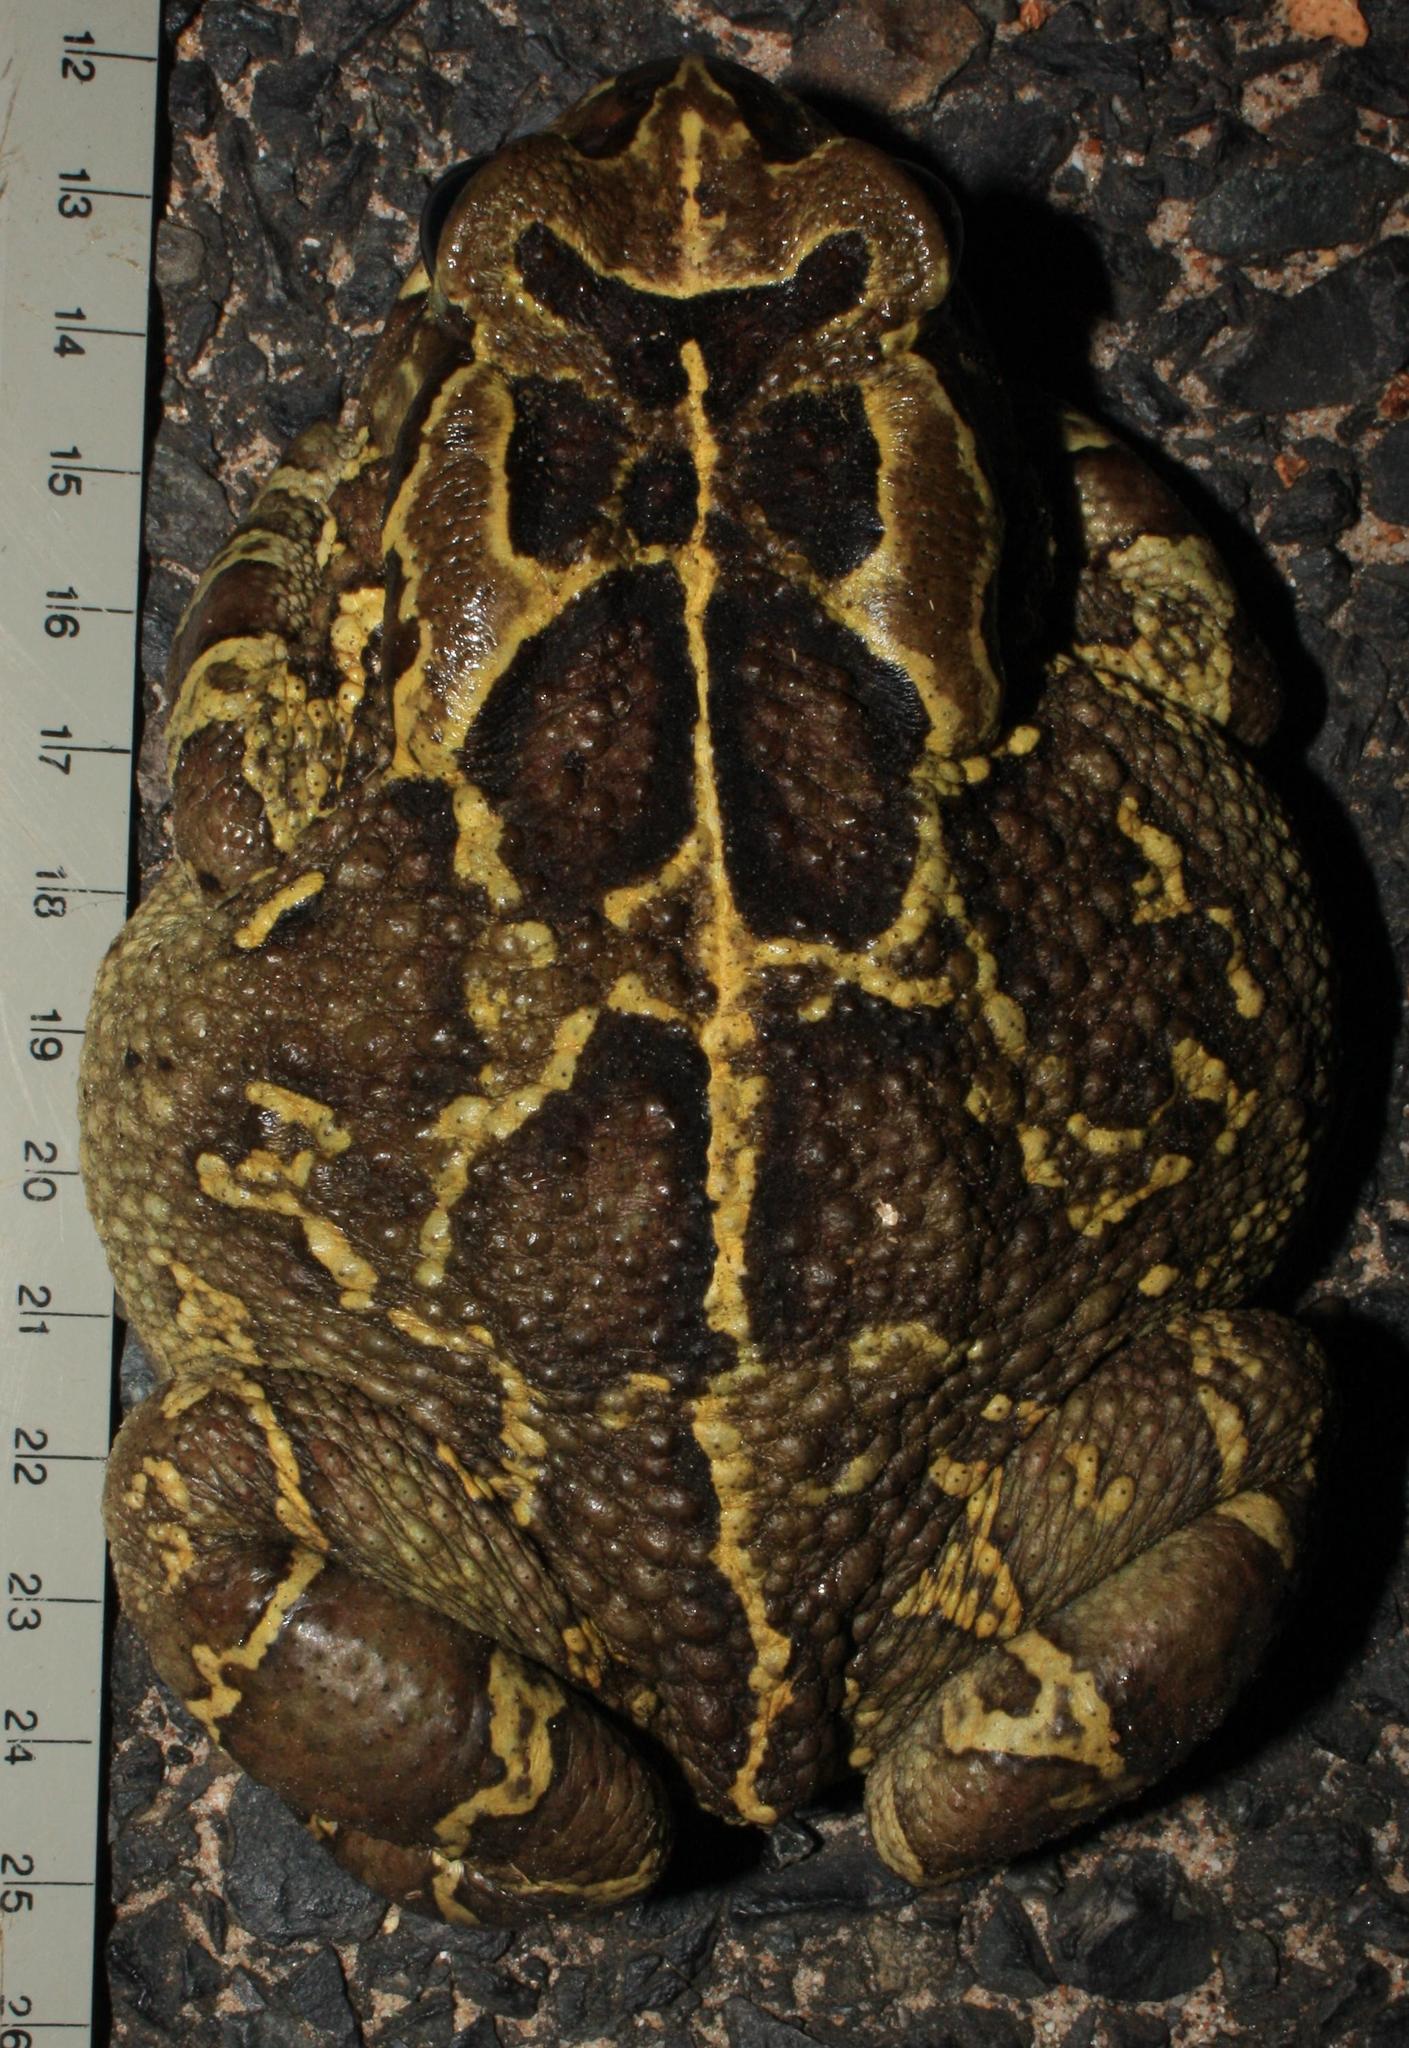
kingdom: Animalia
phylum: Chordata
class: Amphibia
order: Anura
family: Bufonidae
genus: Sclerophrys
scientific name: Sclerophrys pantherina
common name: Panther toad
